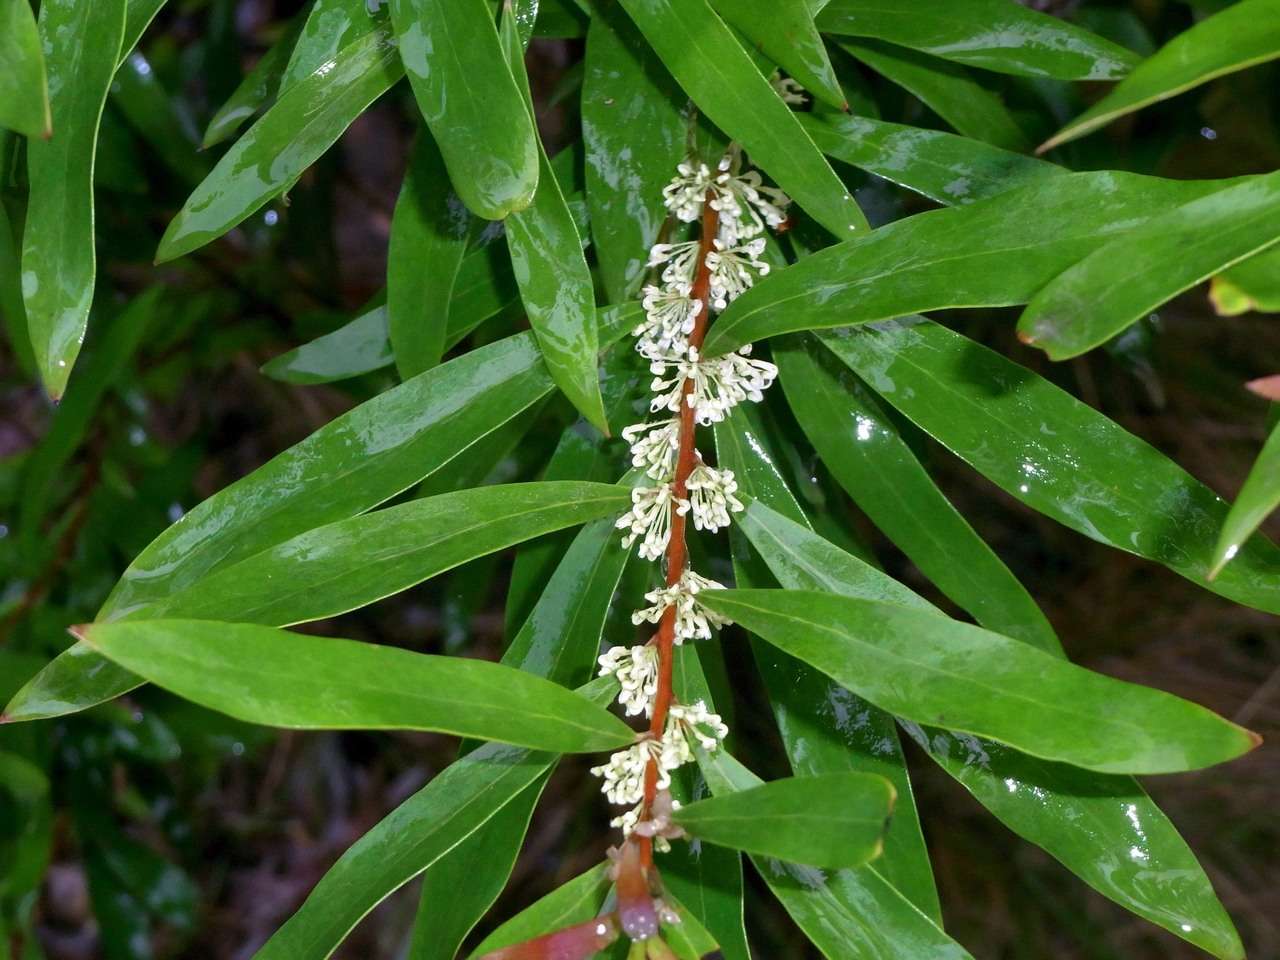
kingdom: Plantae
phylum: Tracheophyta
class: Magnoliopsida
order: Proteales
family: Proteaceae
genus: Hakea
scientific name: Hakea salicifolia
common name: Willow hakea
